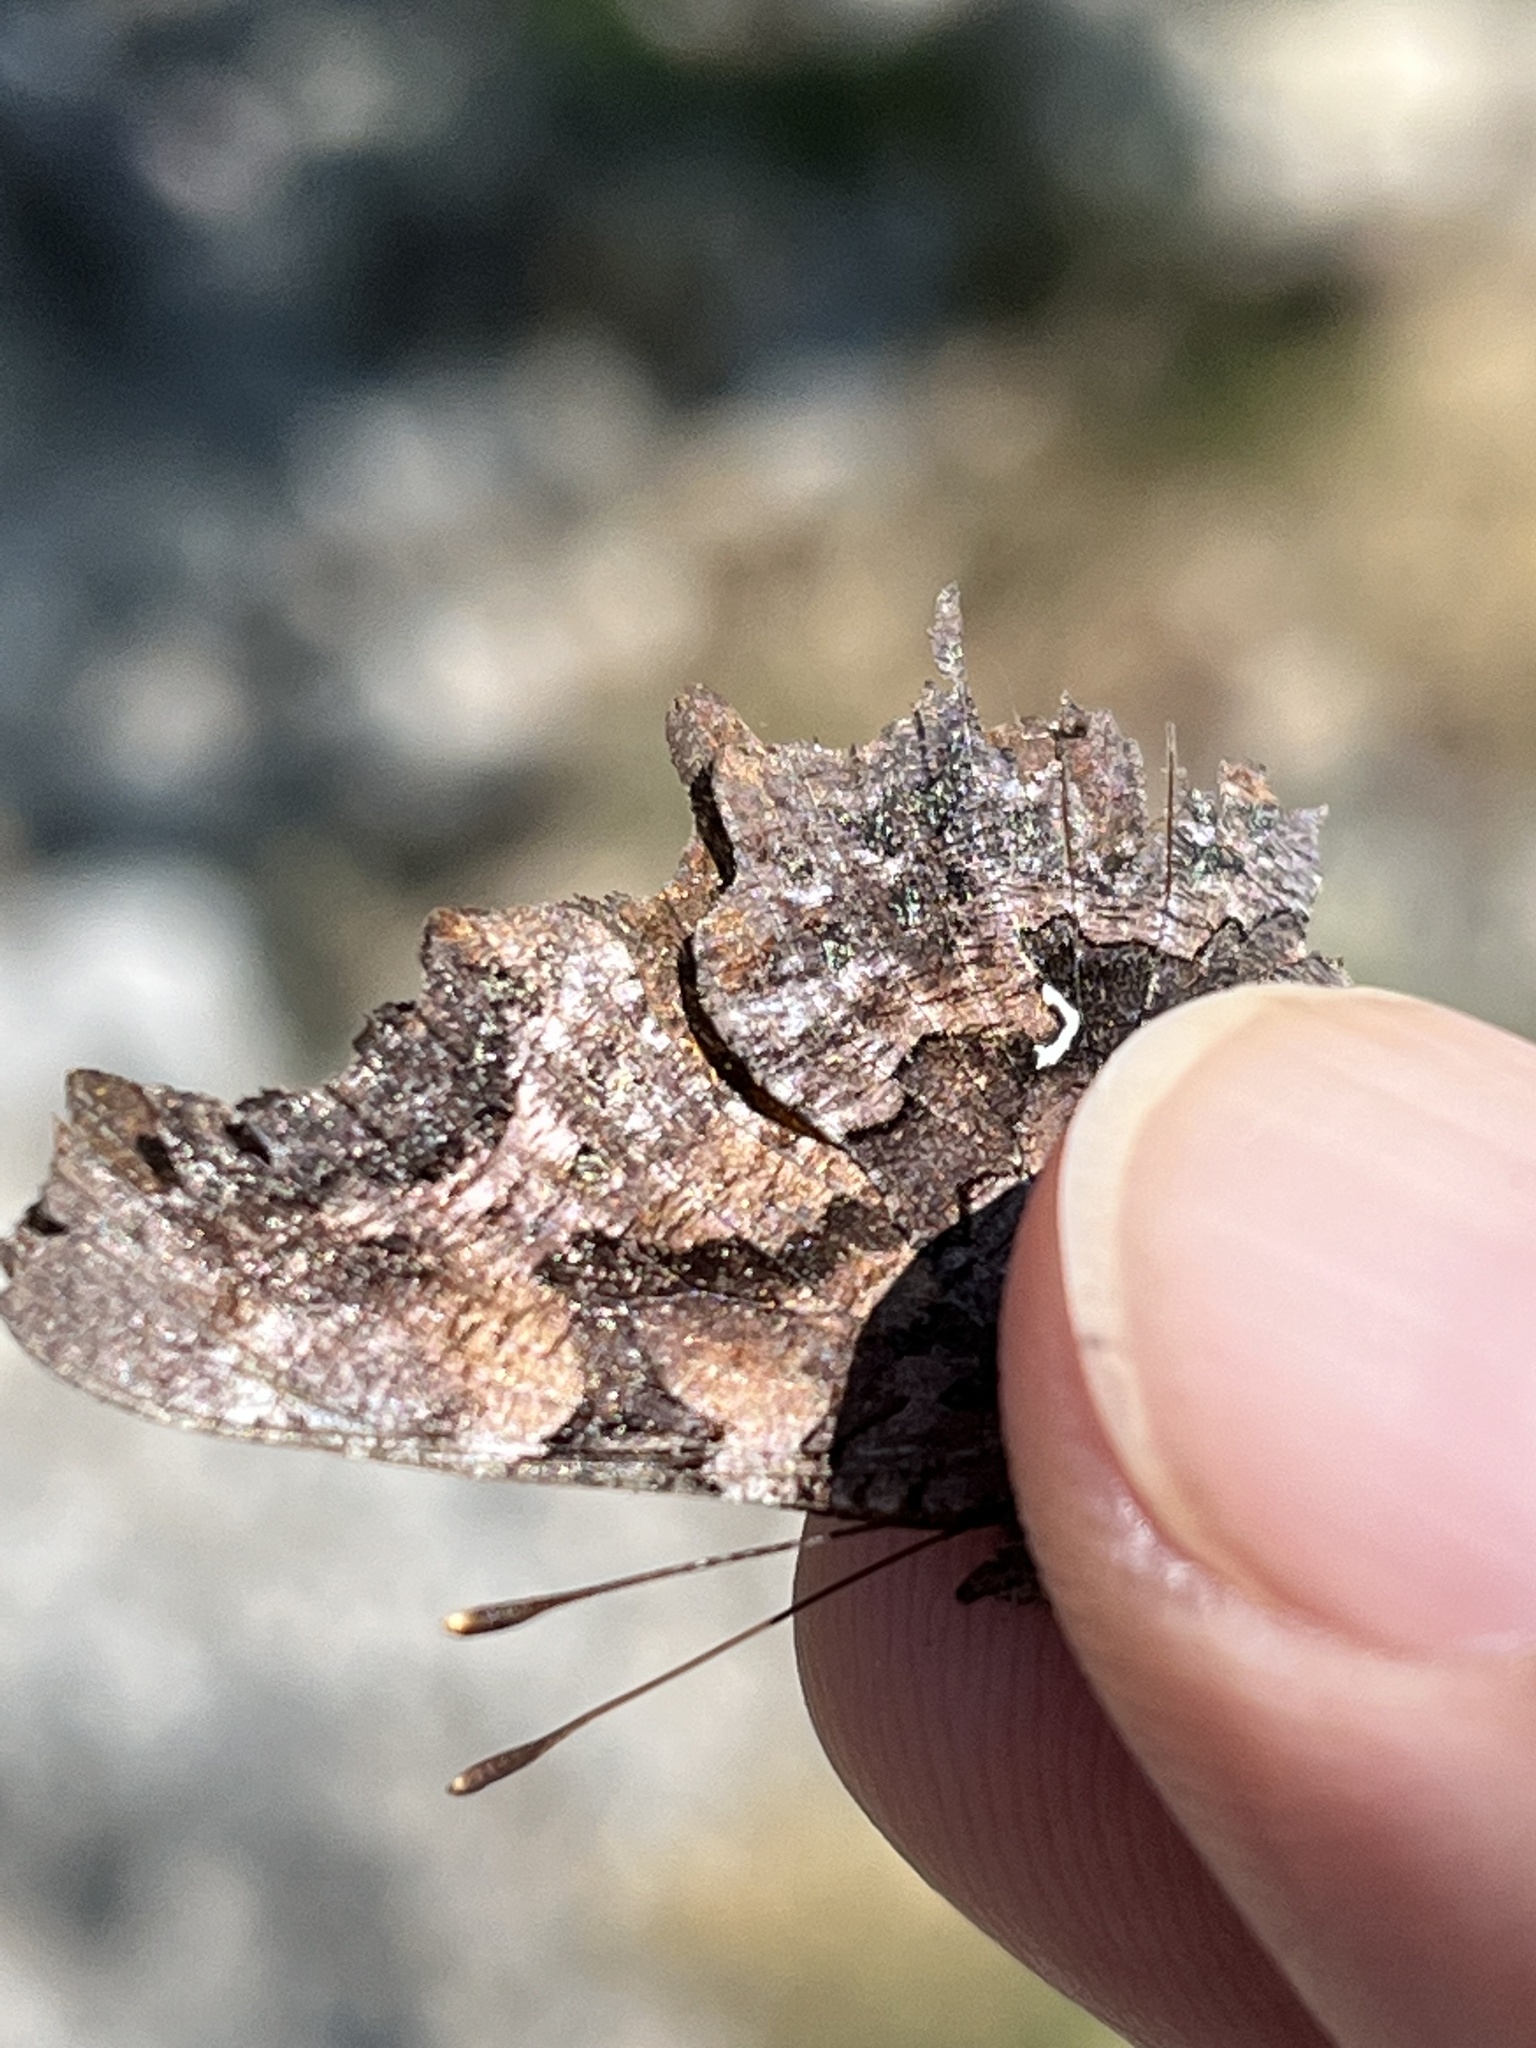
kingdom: Animalia
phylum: Arthropoda
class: Insecta
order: Lepidoptera
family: Nymphalidae
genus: Polygonia
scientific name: Polygonia faunus
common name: Green comma
